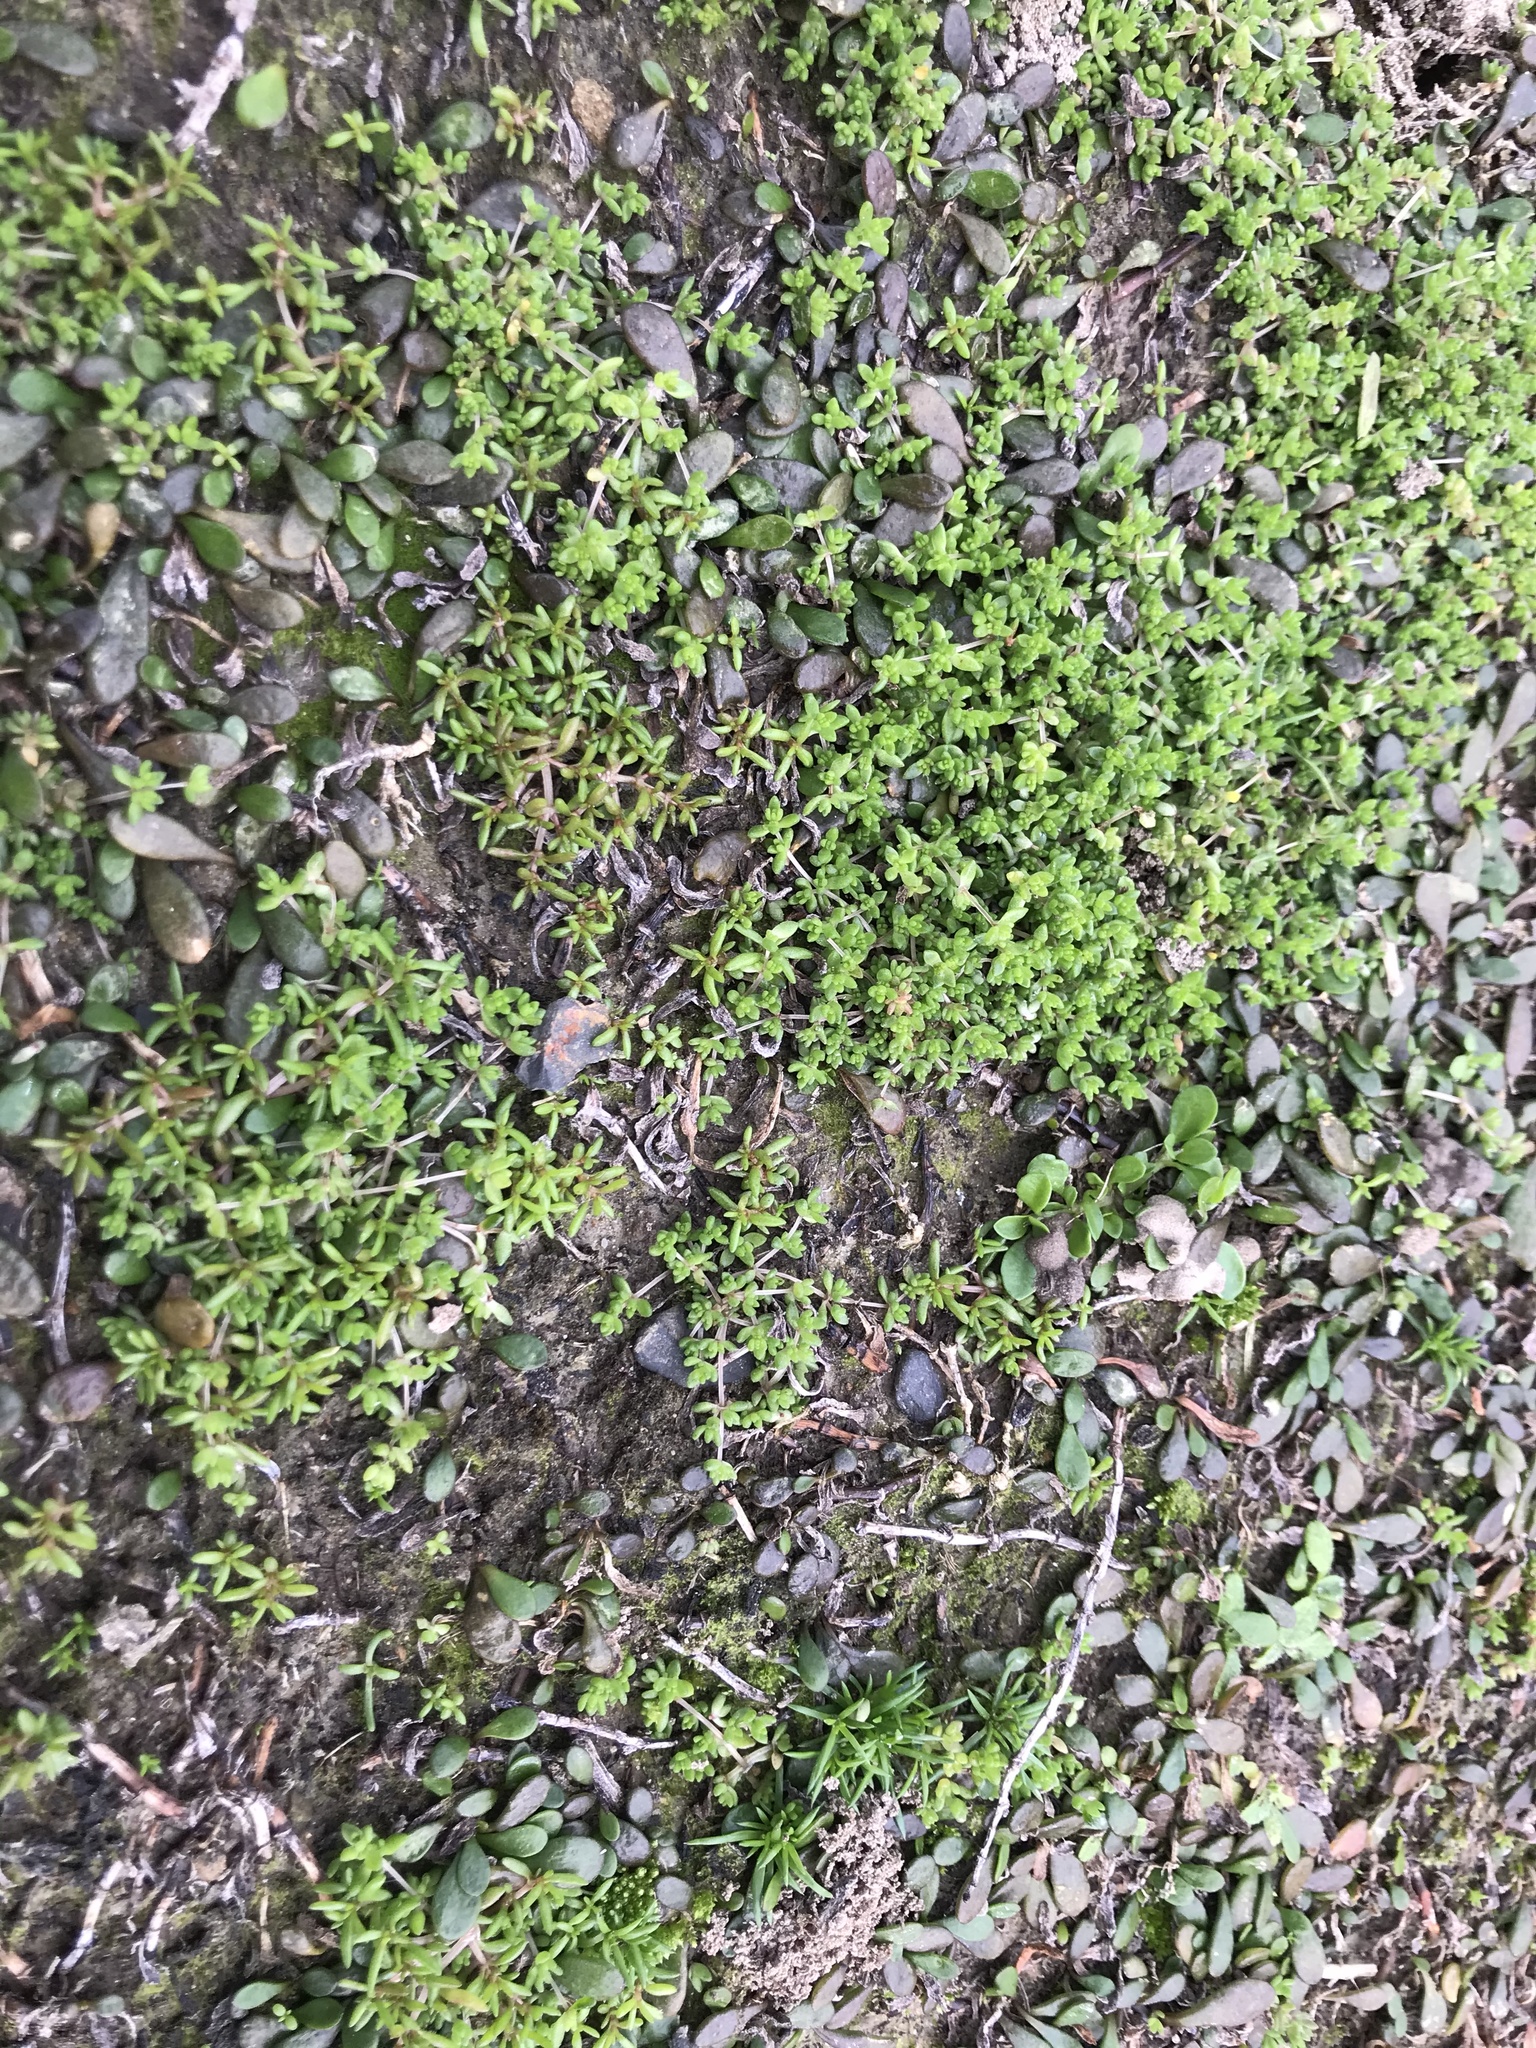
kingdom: Plantae
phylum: Tracheophyta
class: Magnoliopsida
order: Saxifragales
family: Crassulaceae
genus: Crassula
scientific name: Crassula mataikona
